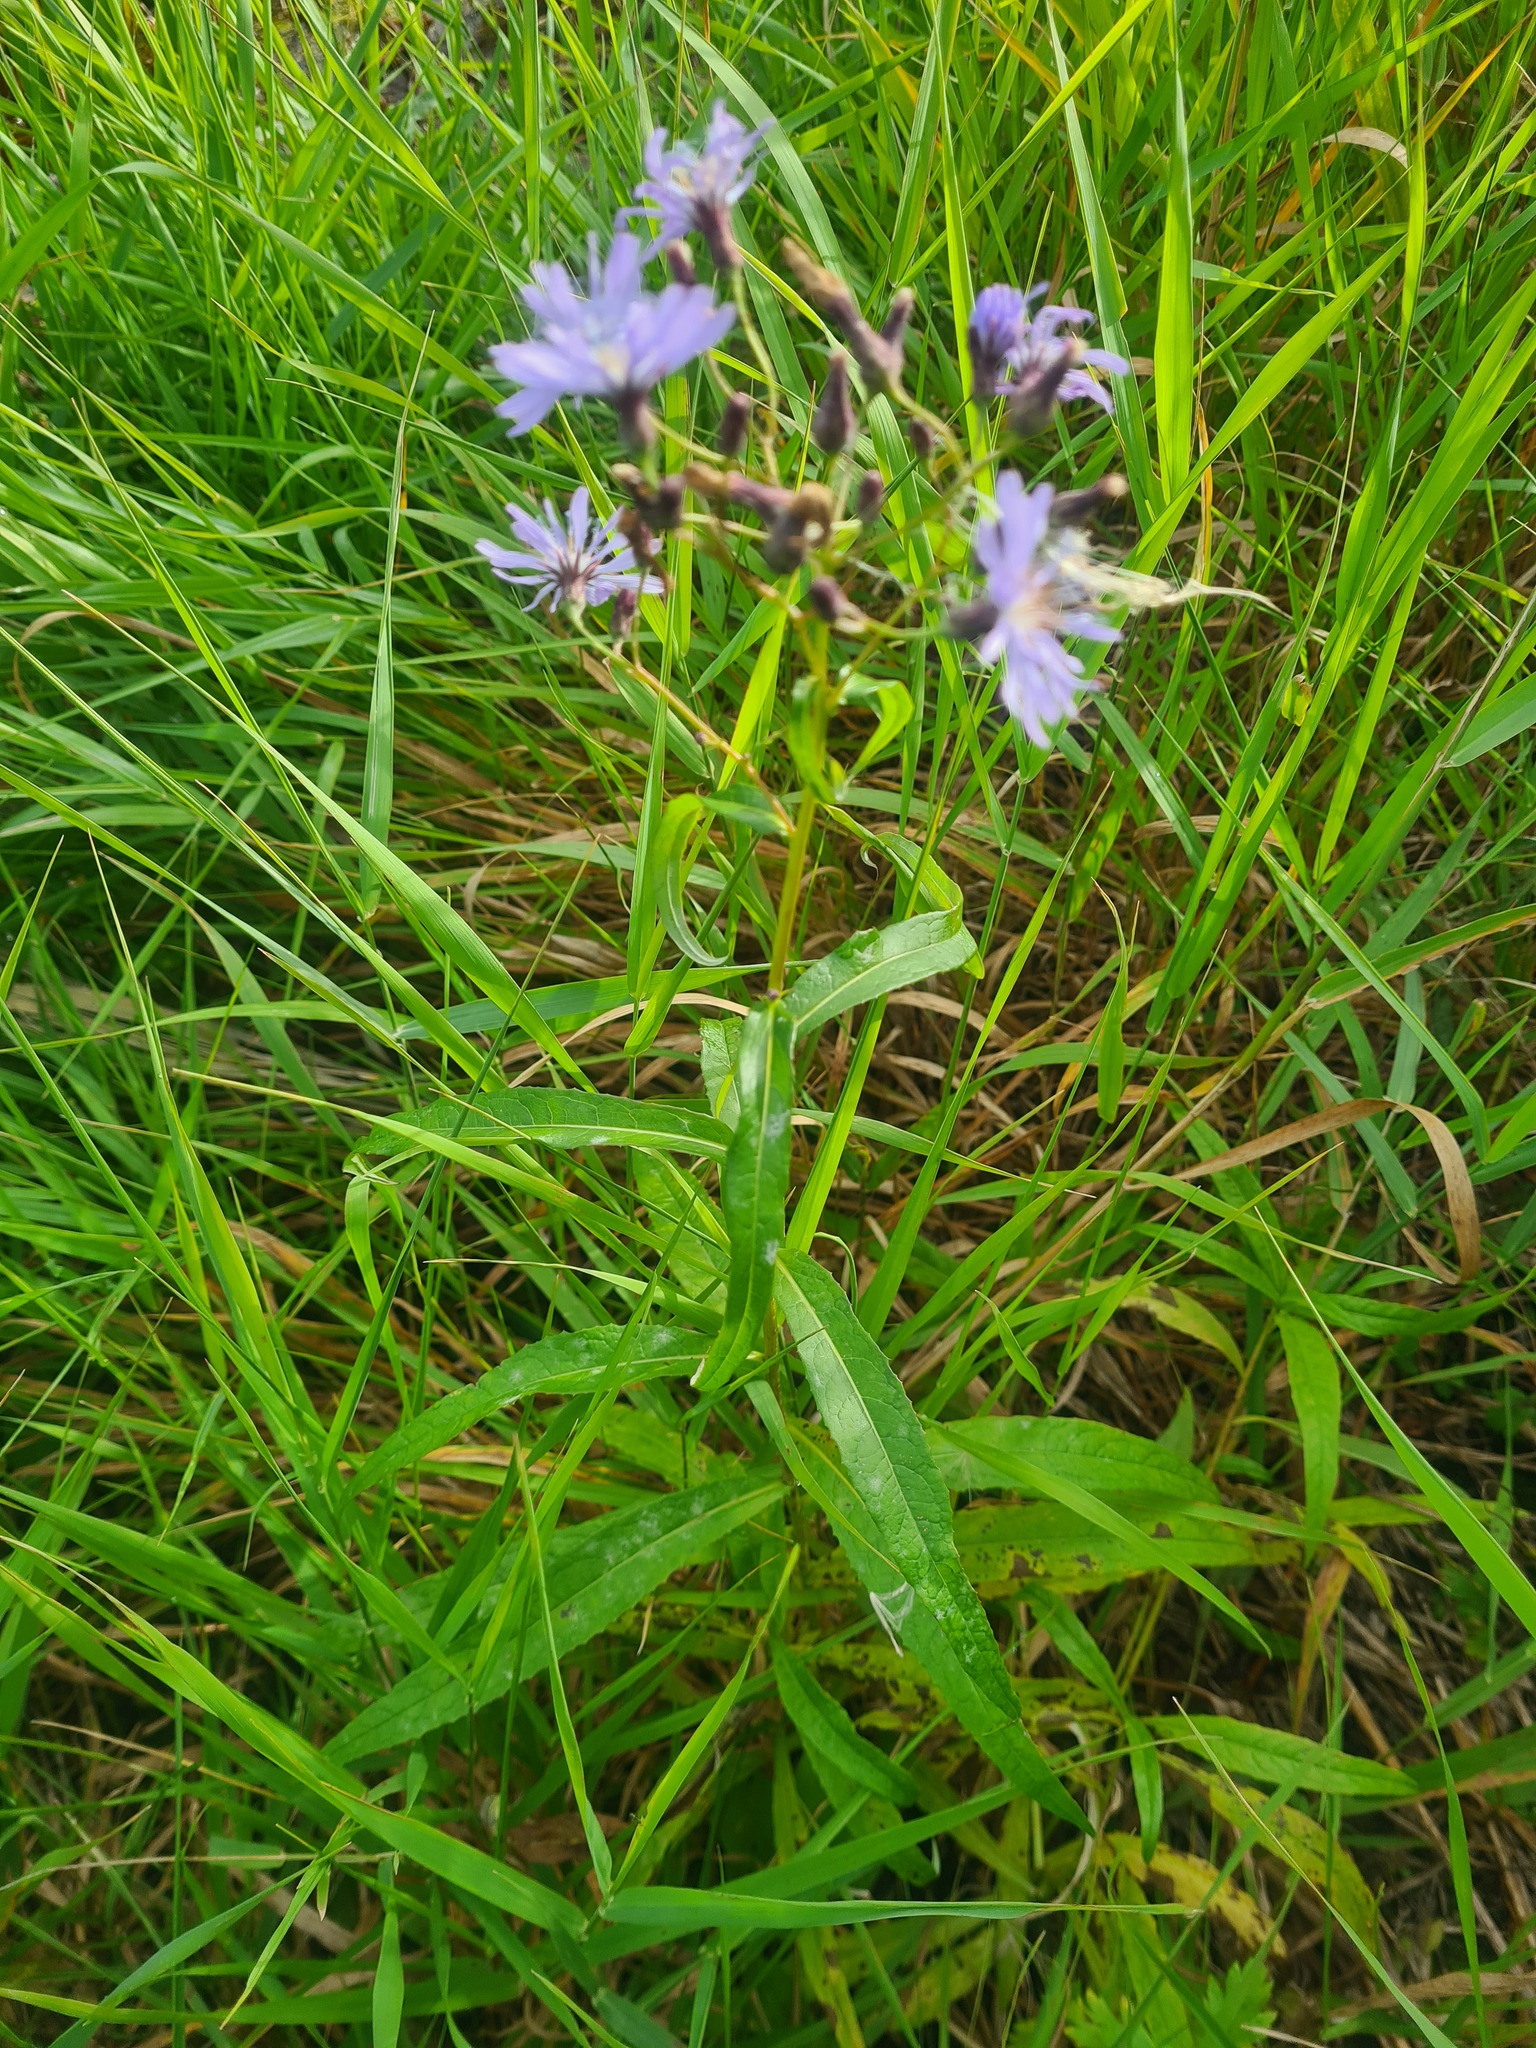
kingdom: Plantae
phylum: Tracheophyta
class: Magnoliopsida
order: Asterales
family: Asteraceae
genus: Lactuca
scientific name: Lactuca sibirica
